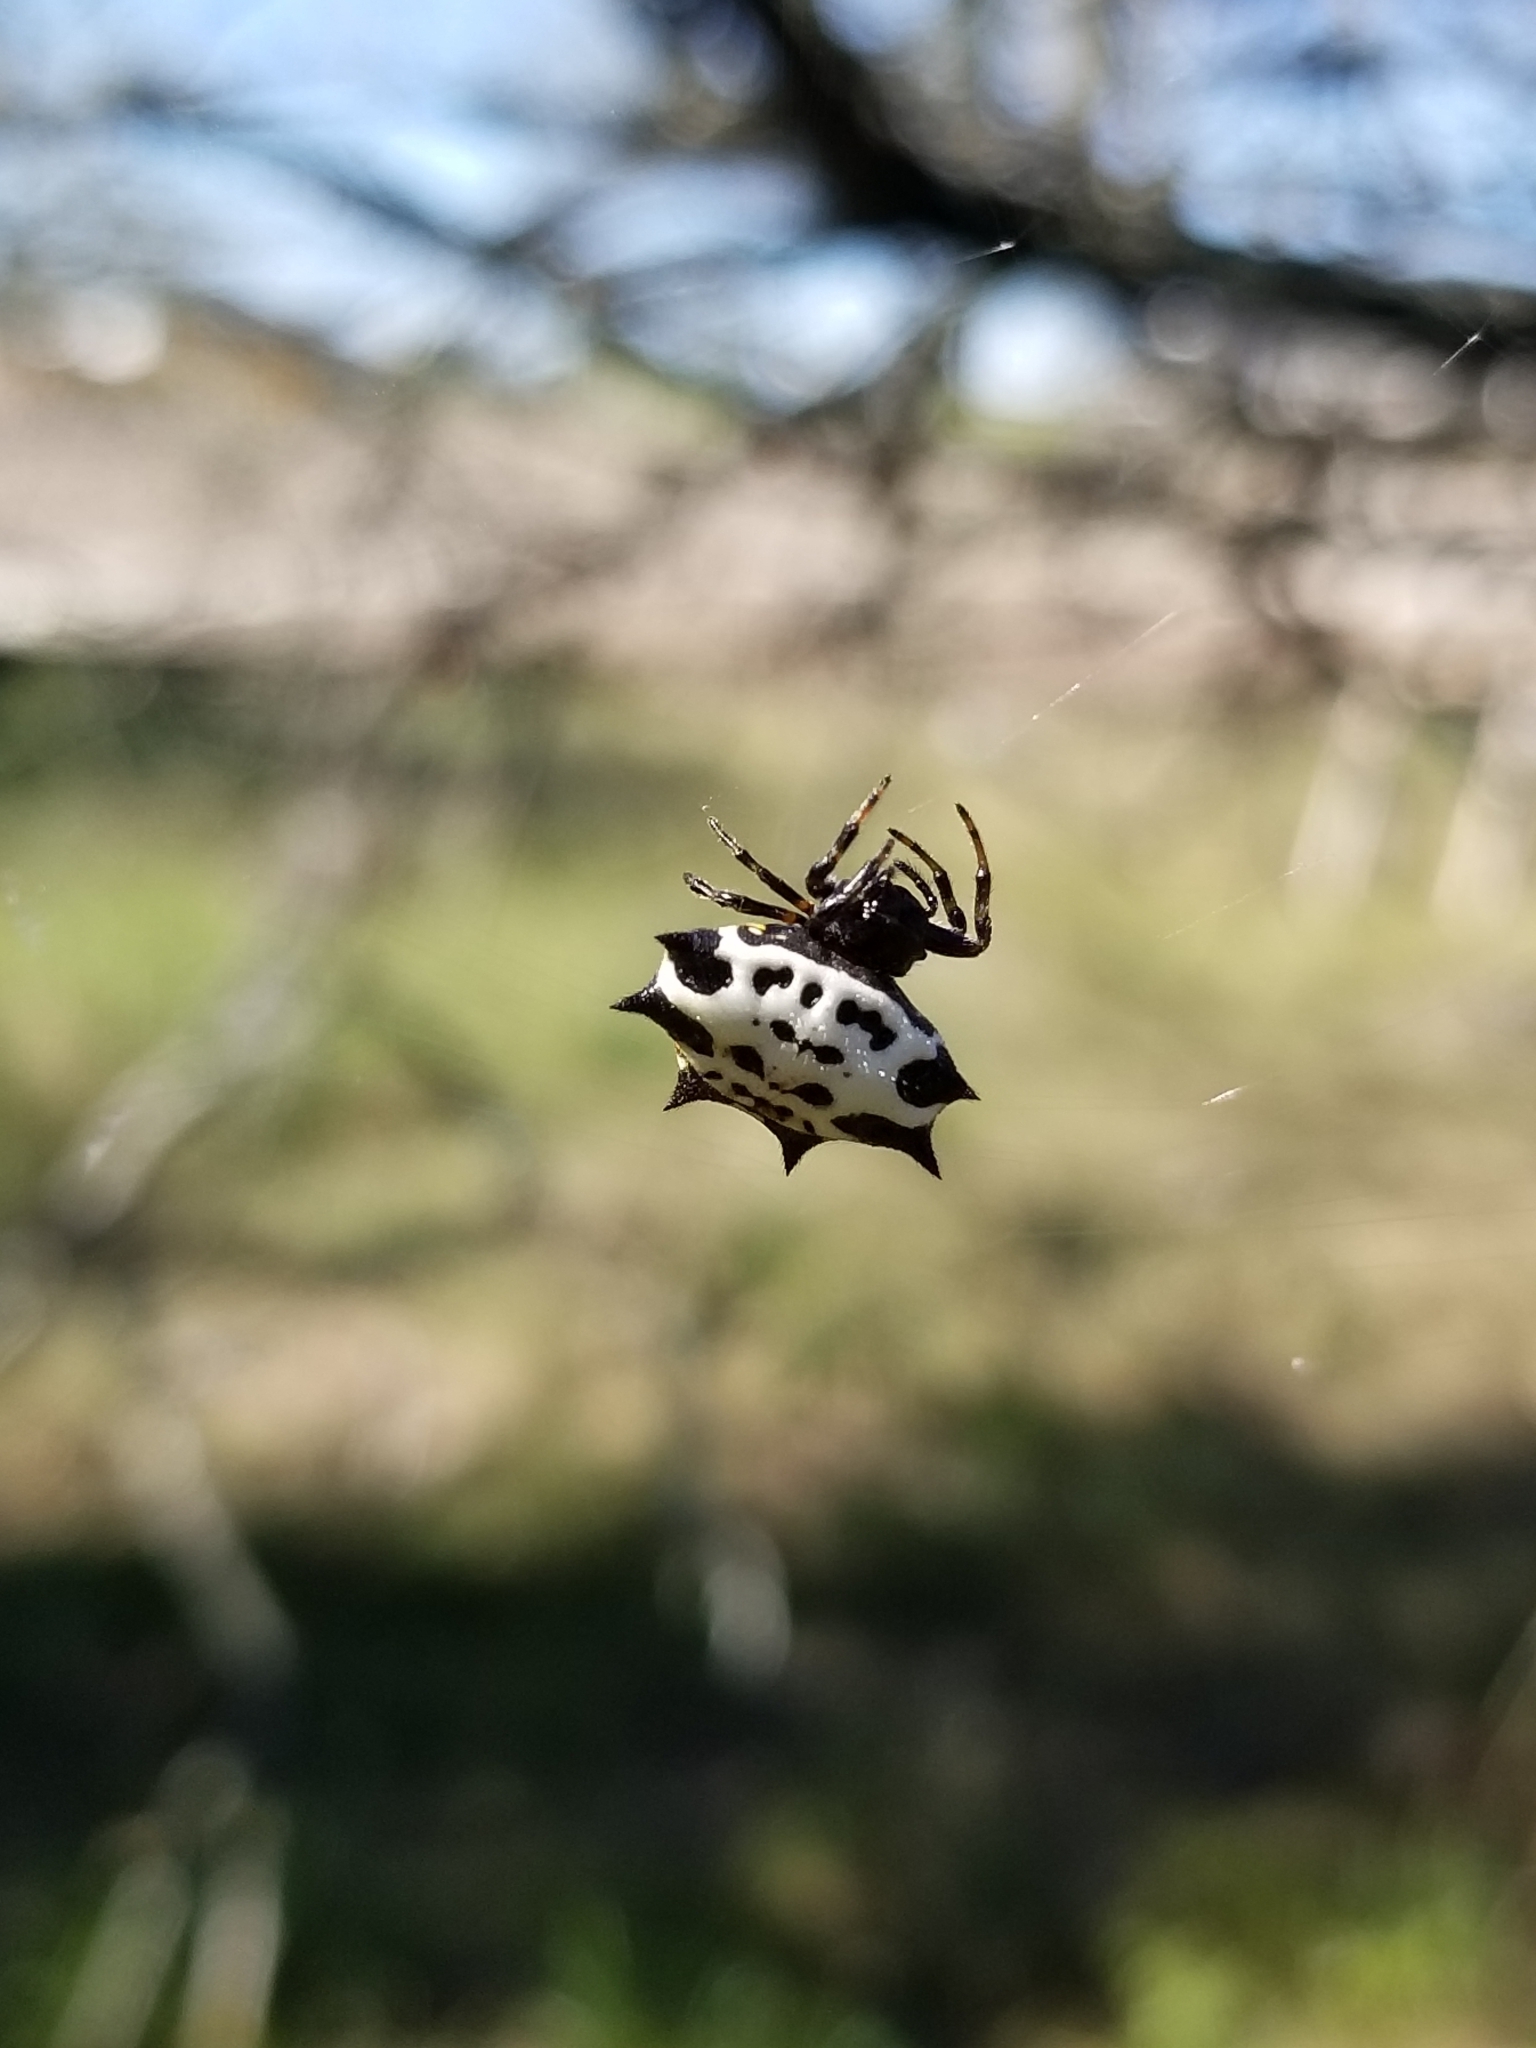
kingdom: Animalia
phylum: Arthropoda
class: Arachnida
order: Araneae
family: Araneidae
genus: Gasteracantha
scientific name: Gasteracantha cancriformis
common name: Orb weavers
